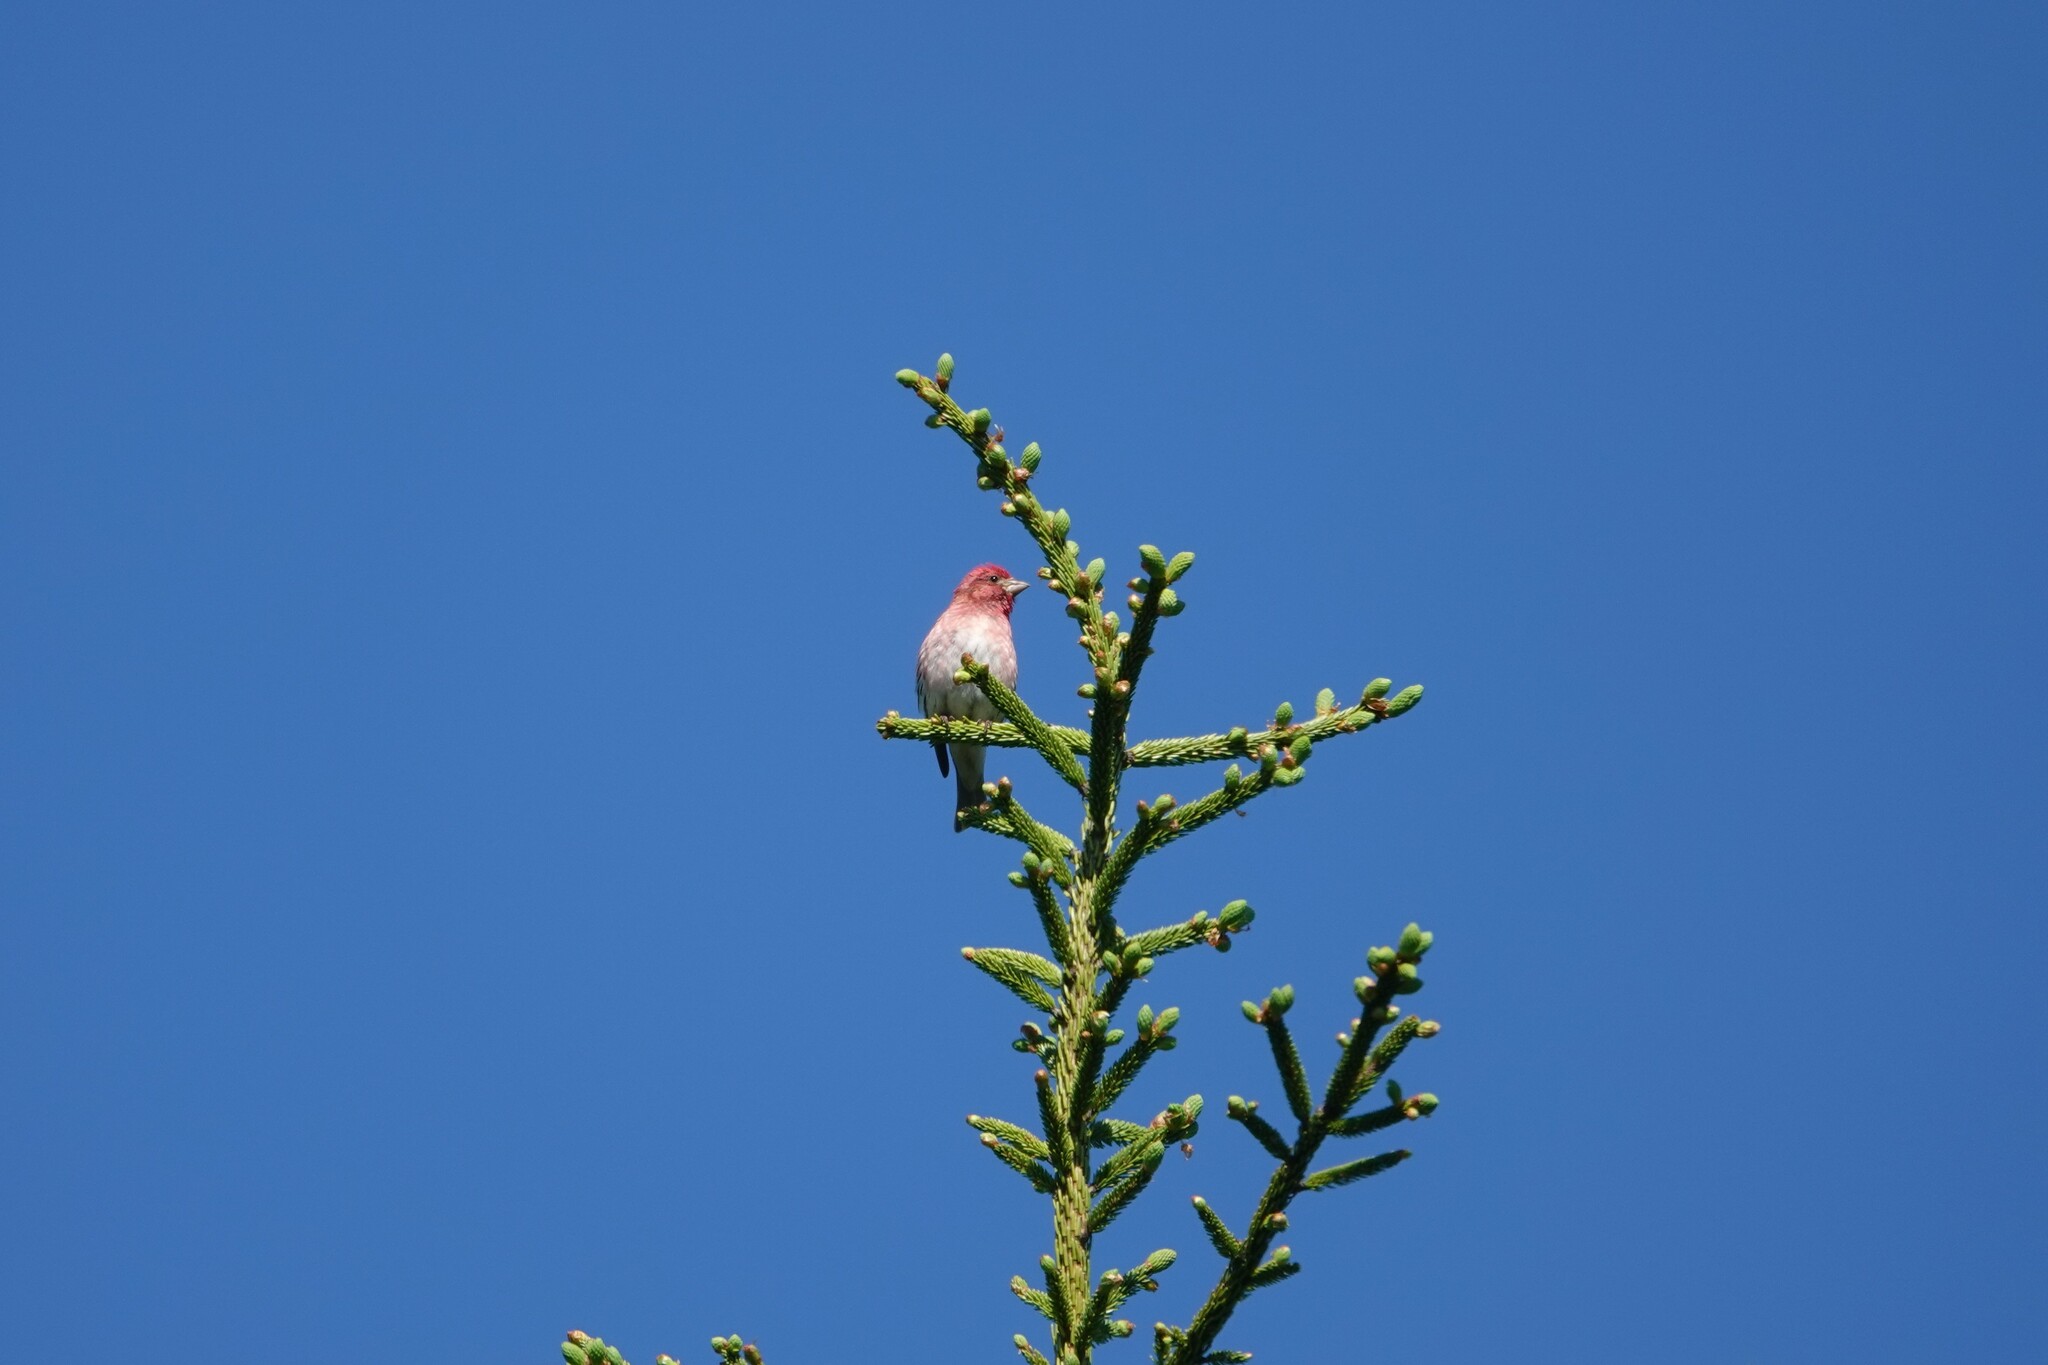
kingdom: Animalia
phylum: Chordata
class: Aves
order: Passeriformes
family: Fringillidae
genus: Haemorhous
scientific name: Haemorhous purpureus
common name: Purple finch
